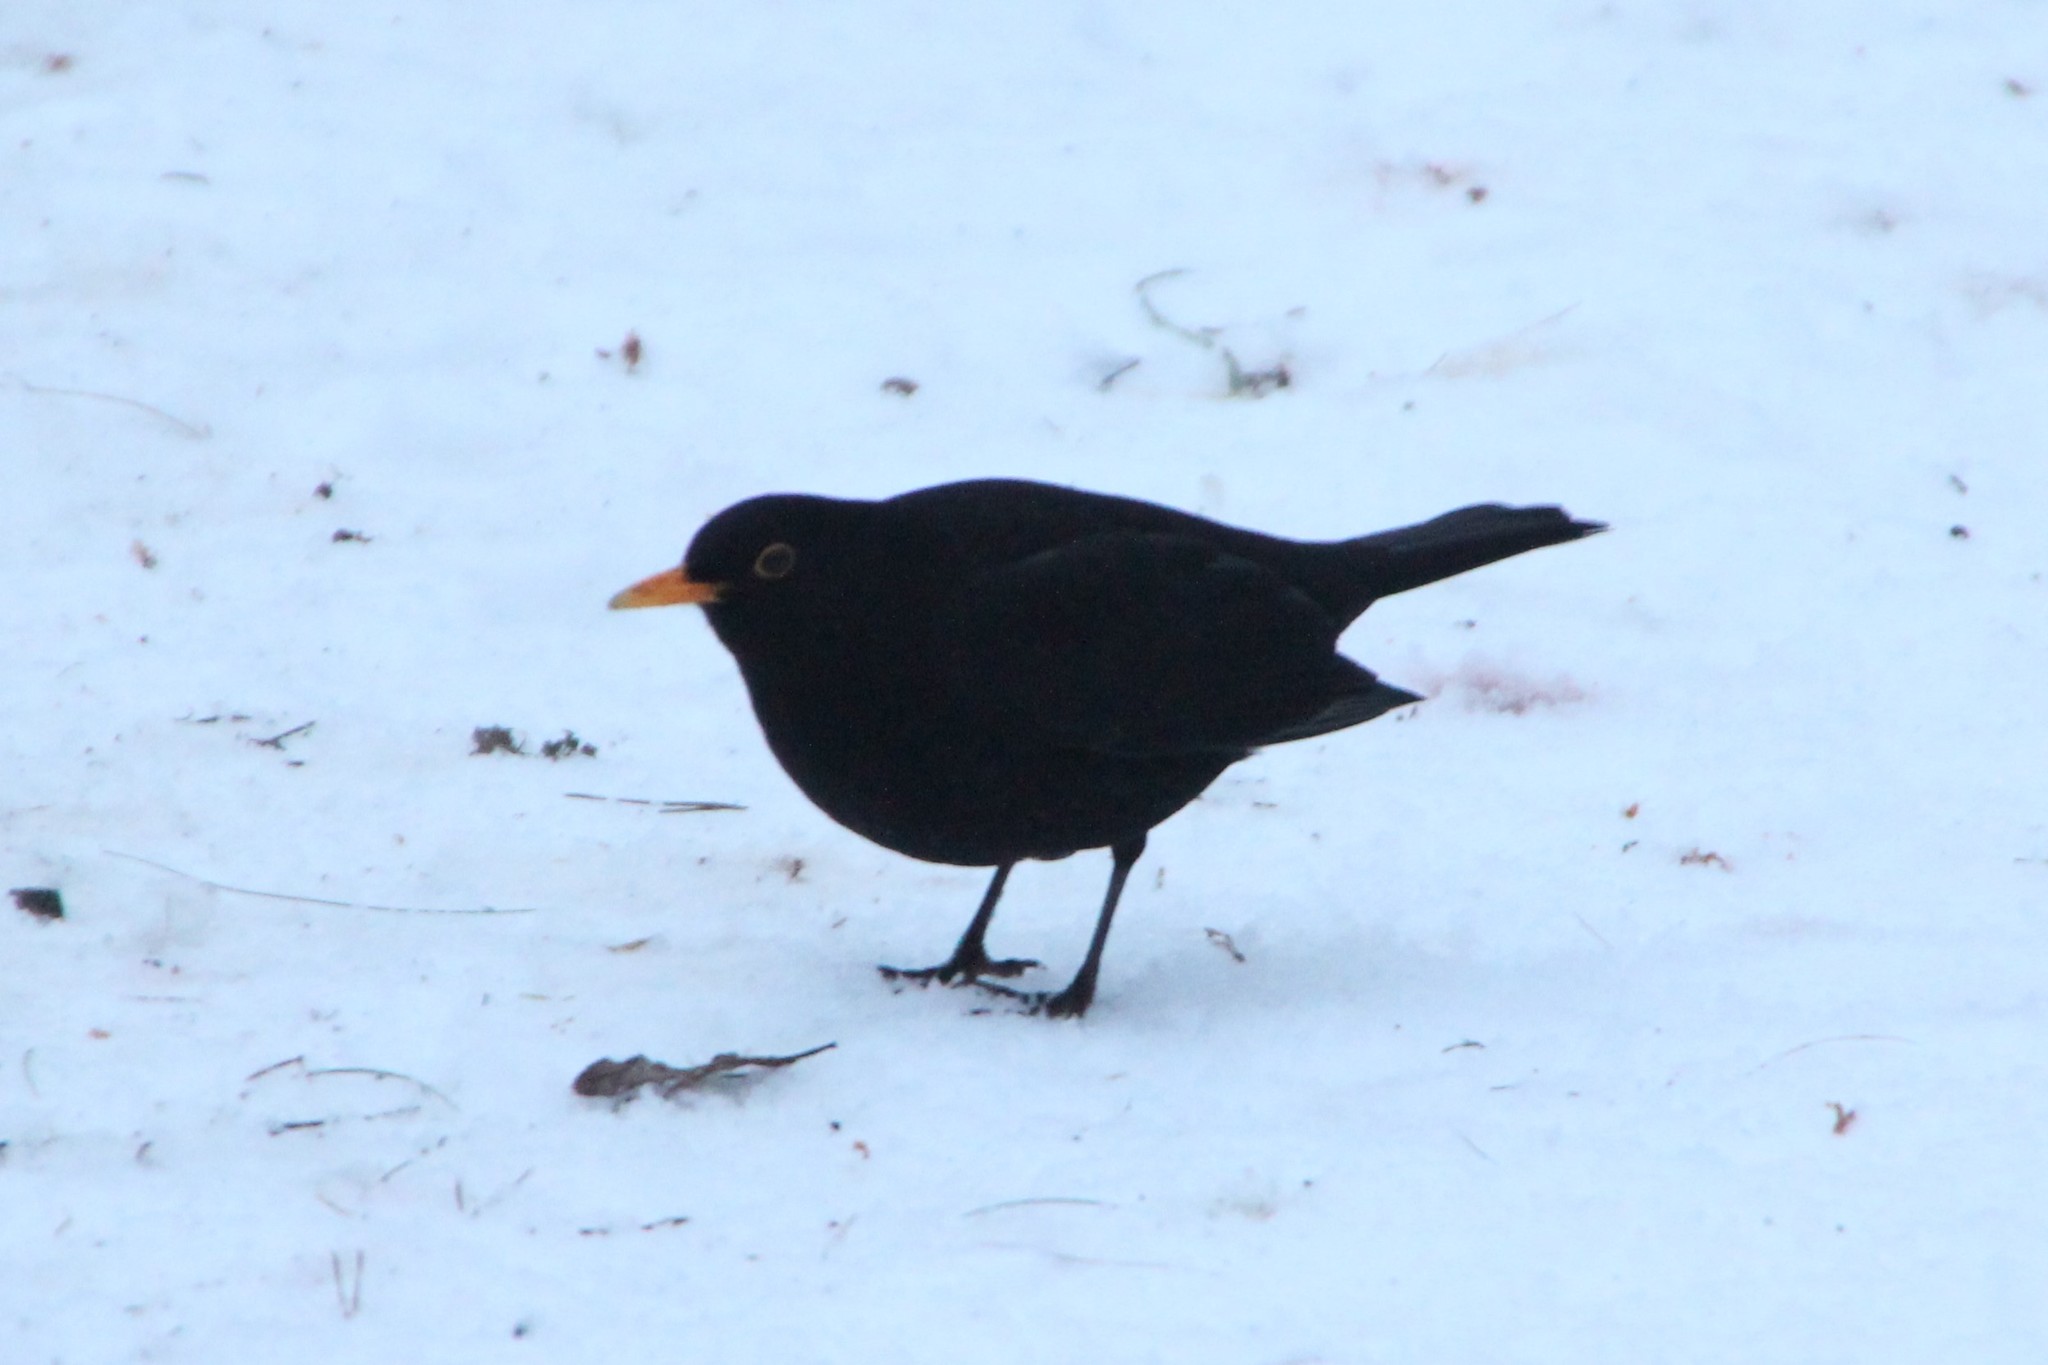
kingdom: Animalia
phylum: Chordata
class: Aves
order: Passeriformes
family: Turdidae
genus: Turdus
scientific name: Turdus merula
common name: Common blackbird
